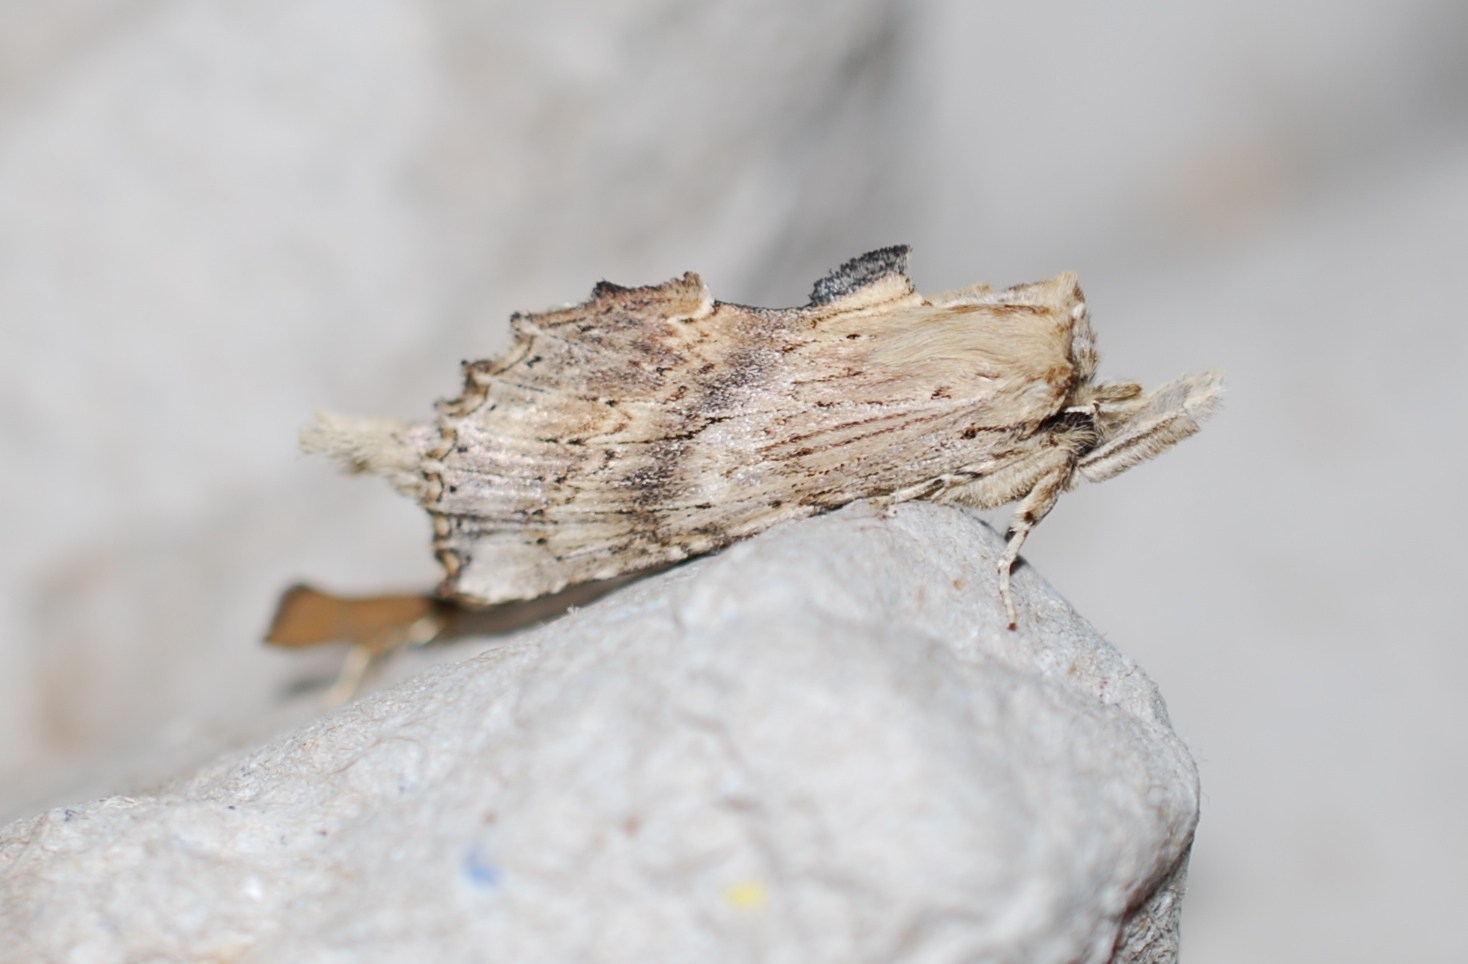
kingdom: Animalia
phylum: Arthropoda
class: Insecta
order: Lepidoptera
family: Notodontidae
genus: Pterostoma
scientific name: Pterostoma palpina
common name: Pale prominent
